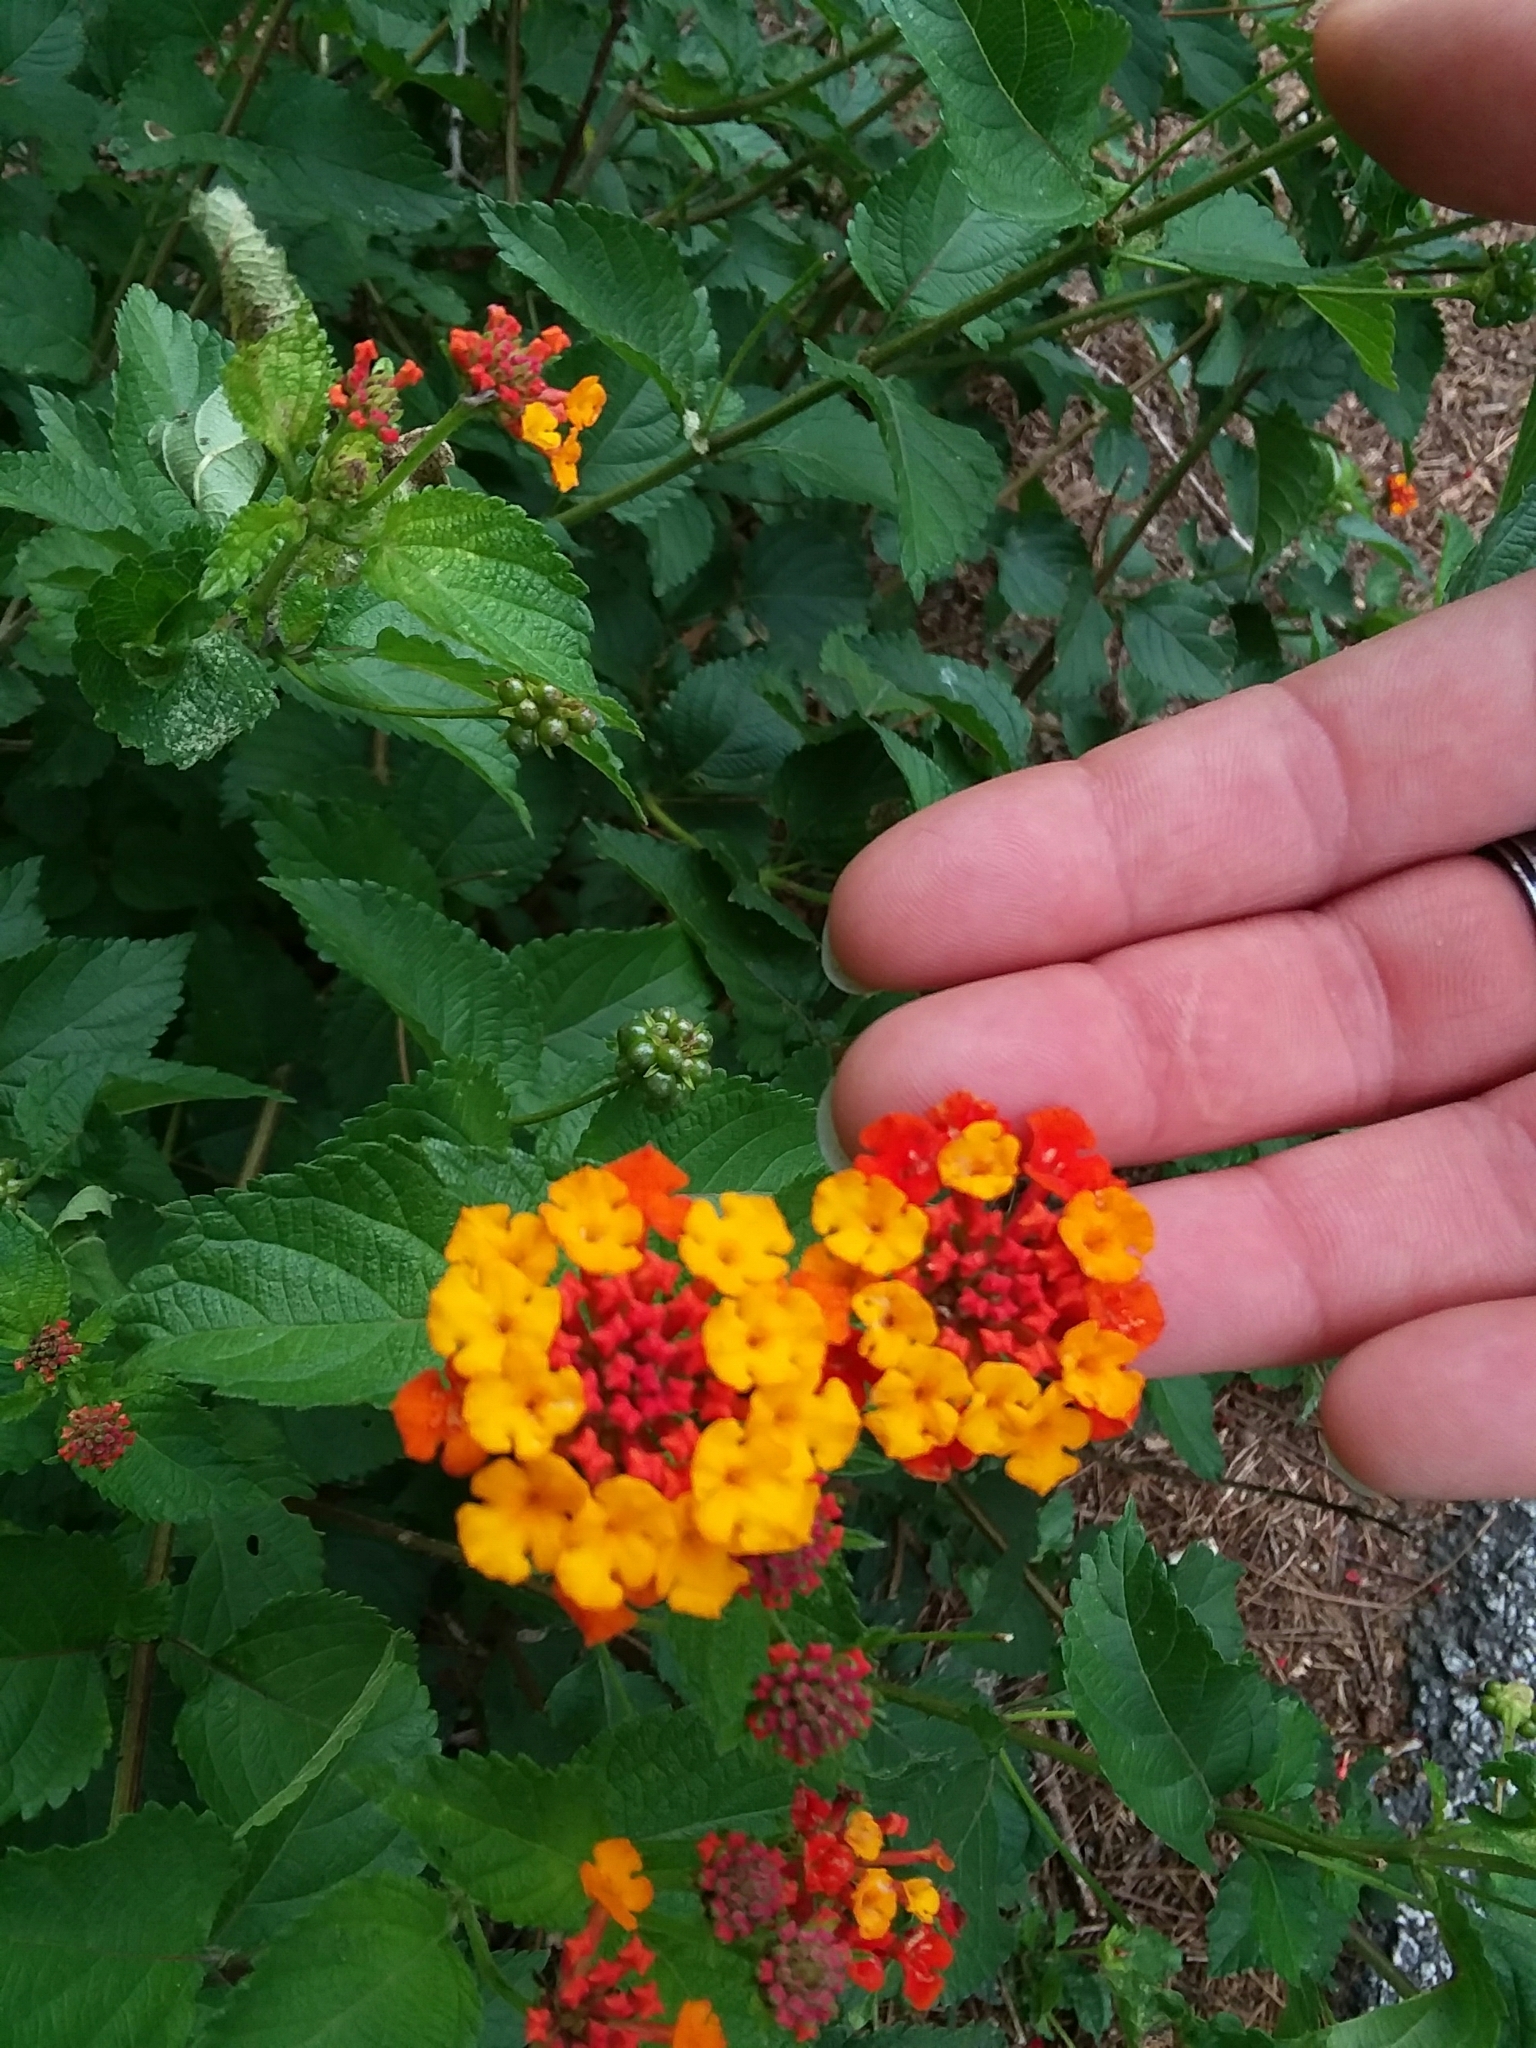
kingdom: Plantae
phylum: Tracheophyta
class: Magnoliopsida
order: Lamiales
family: Verbenaceae
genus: Lantana
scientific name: Lantana camara
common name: Lantana
